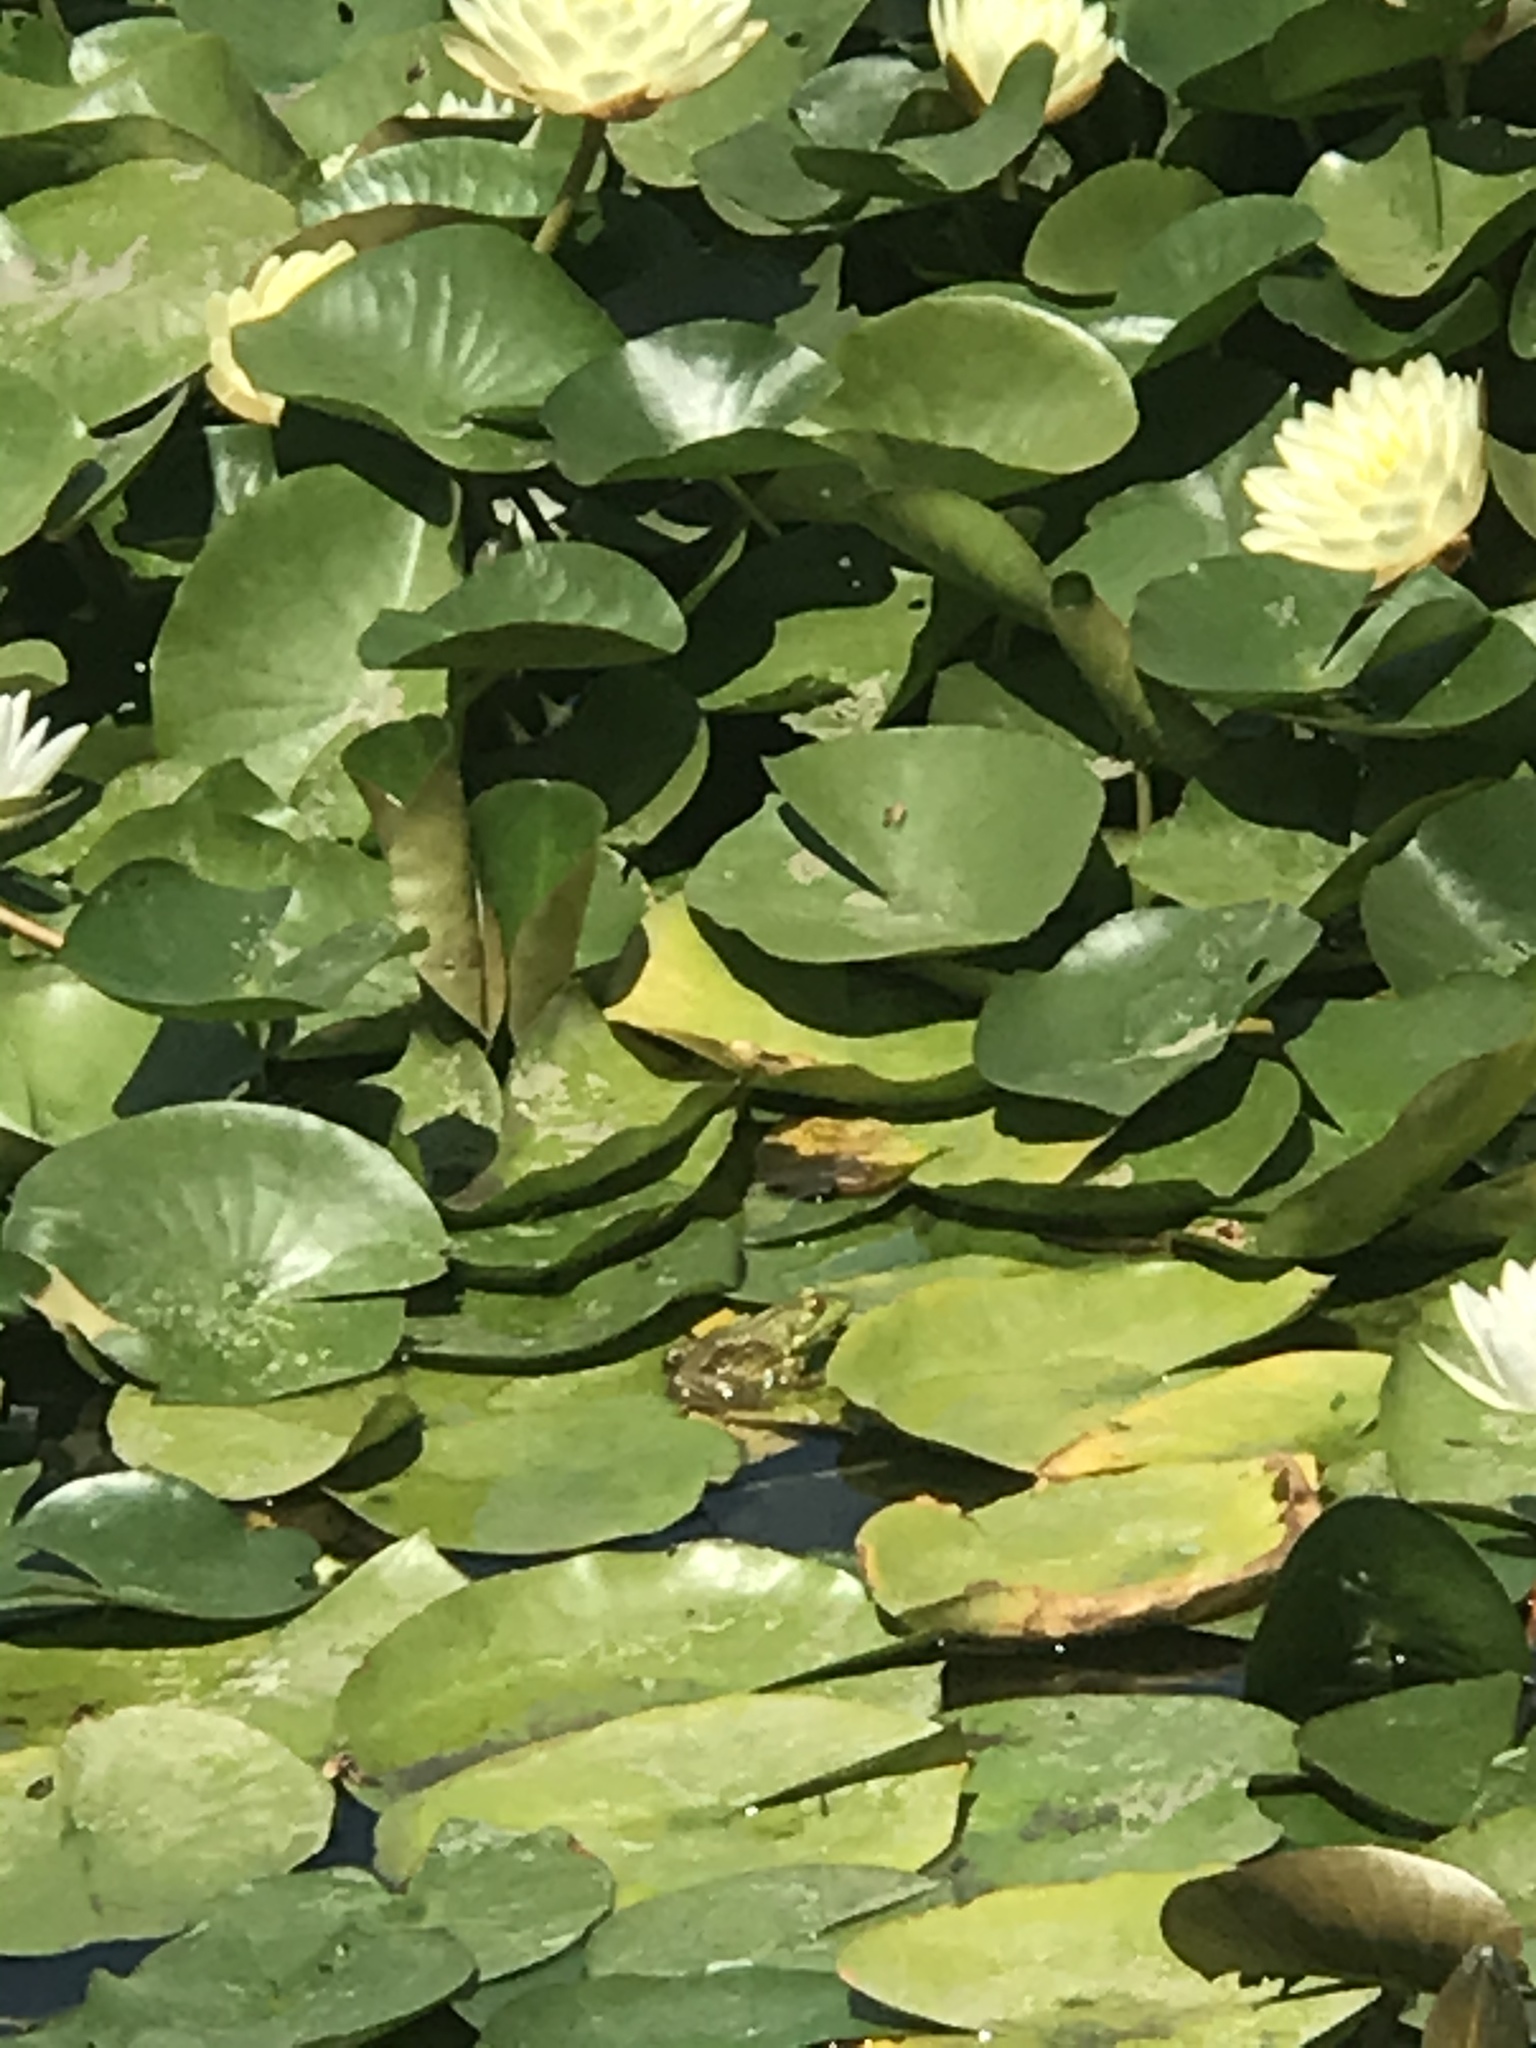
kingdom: Animalia
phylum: Chordata
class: Amphibia
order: Anura
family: Ranidae
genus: Lithobates
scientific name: Lithobates catesbeianus
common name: American bullfrog
